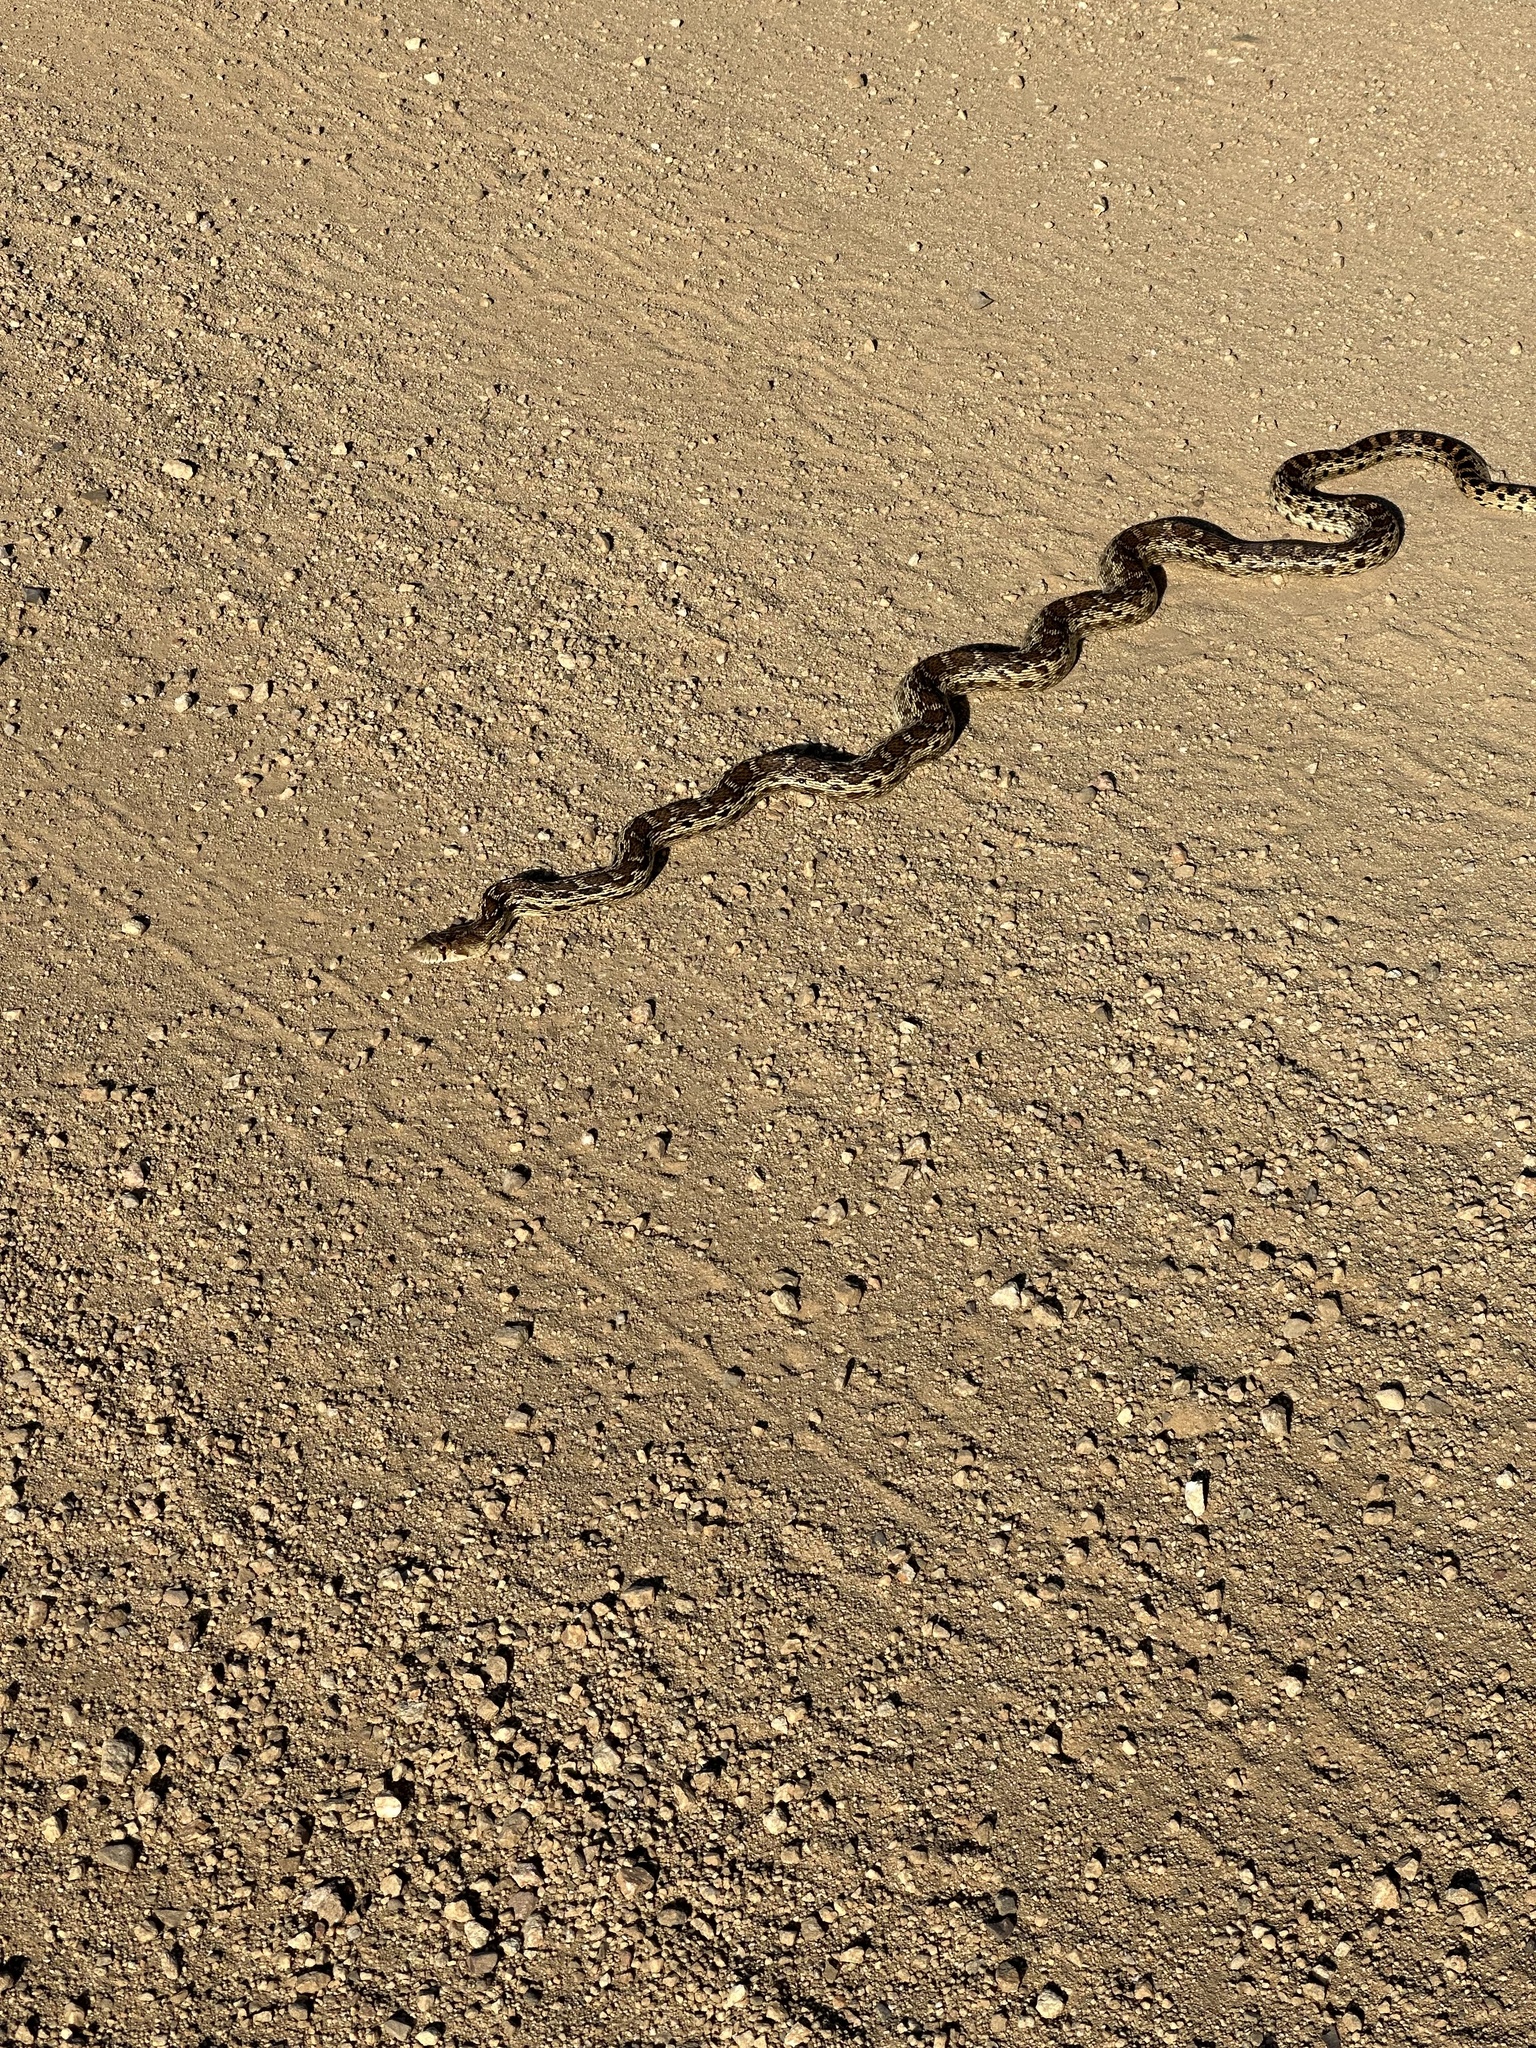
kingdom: Animalia
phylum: Chordata
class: Squamata
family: Colubridae
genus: Pituophis
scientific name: Pituophis catenifer
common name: Gopher snake
